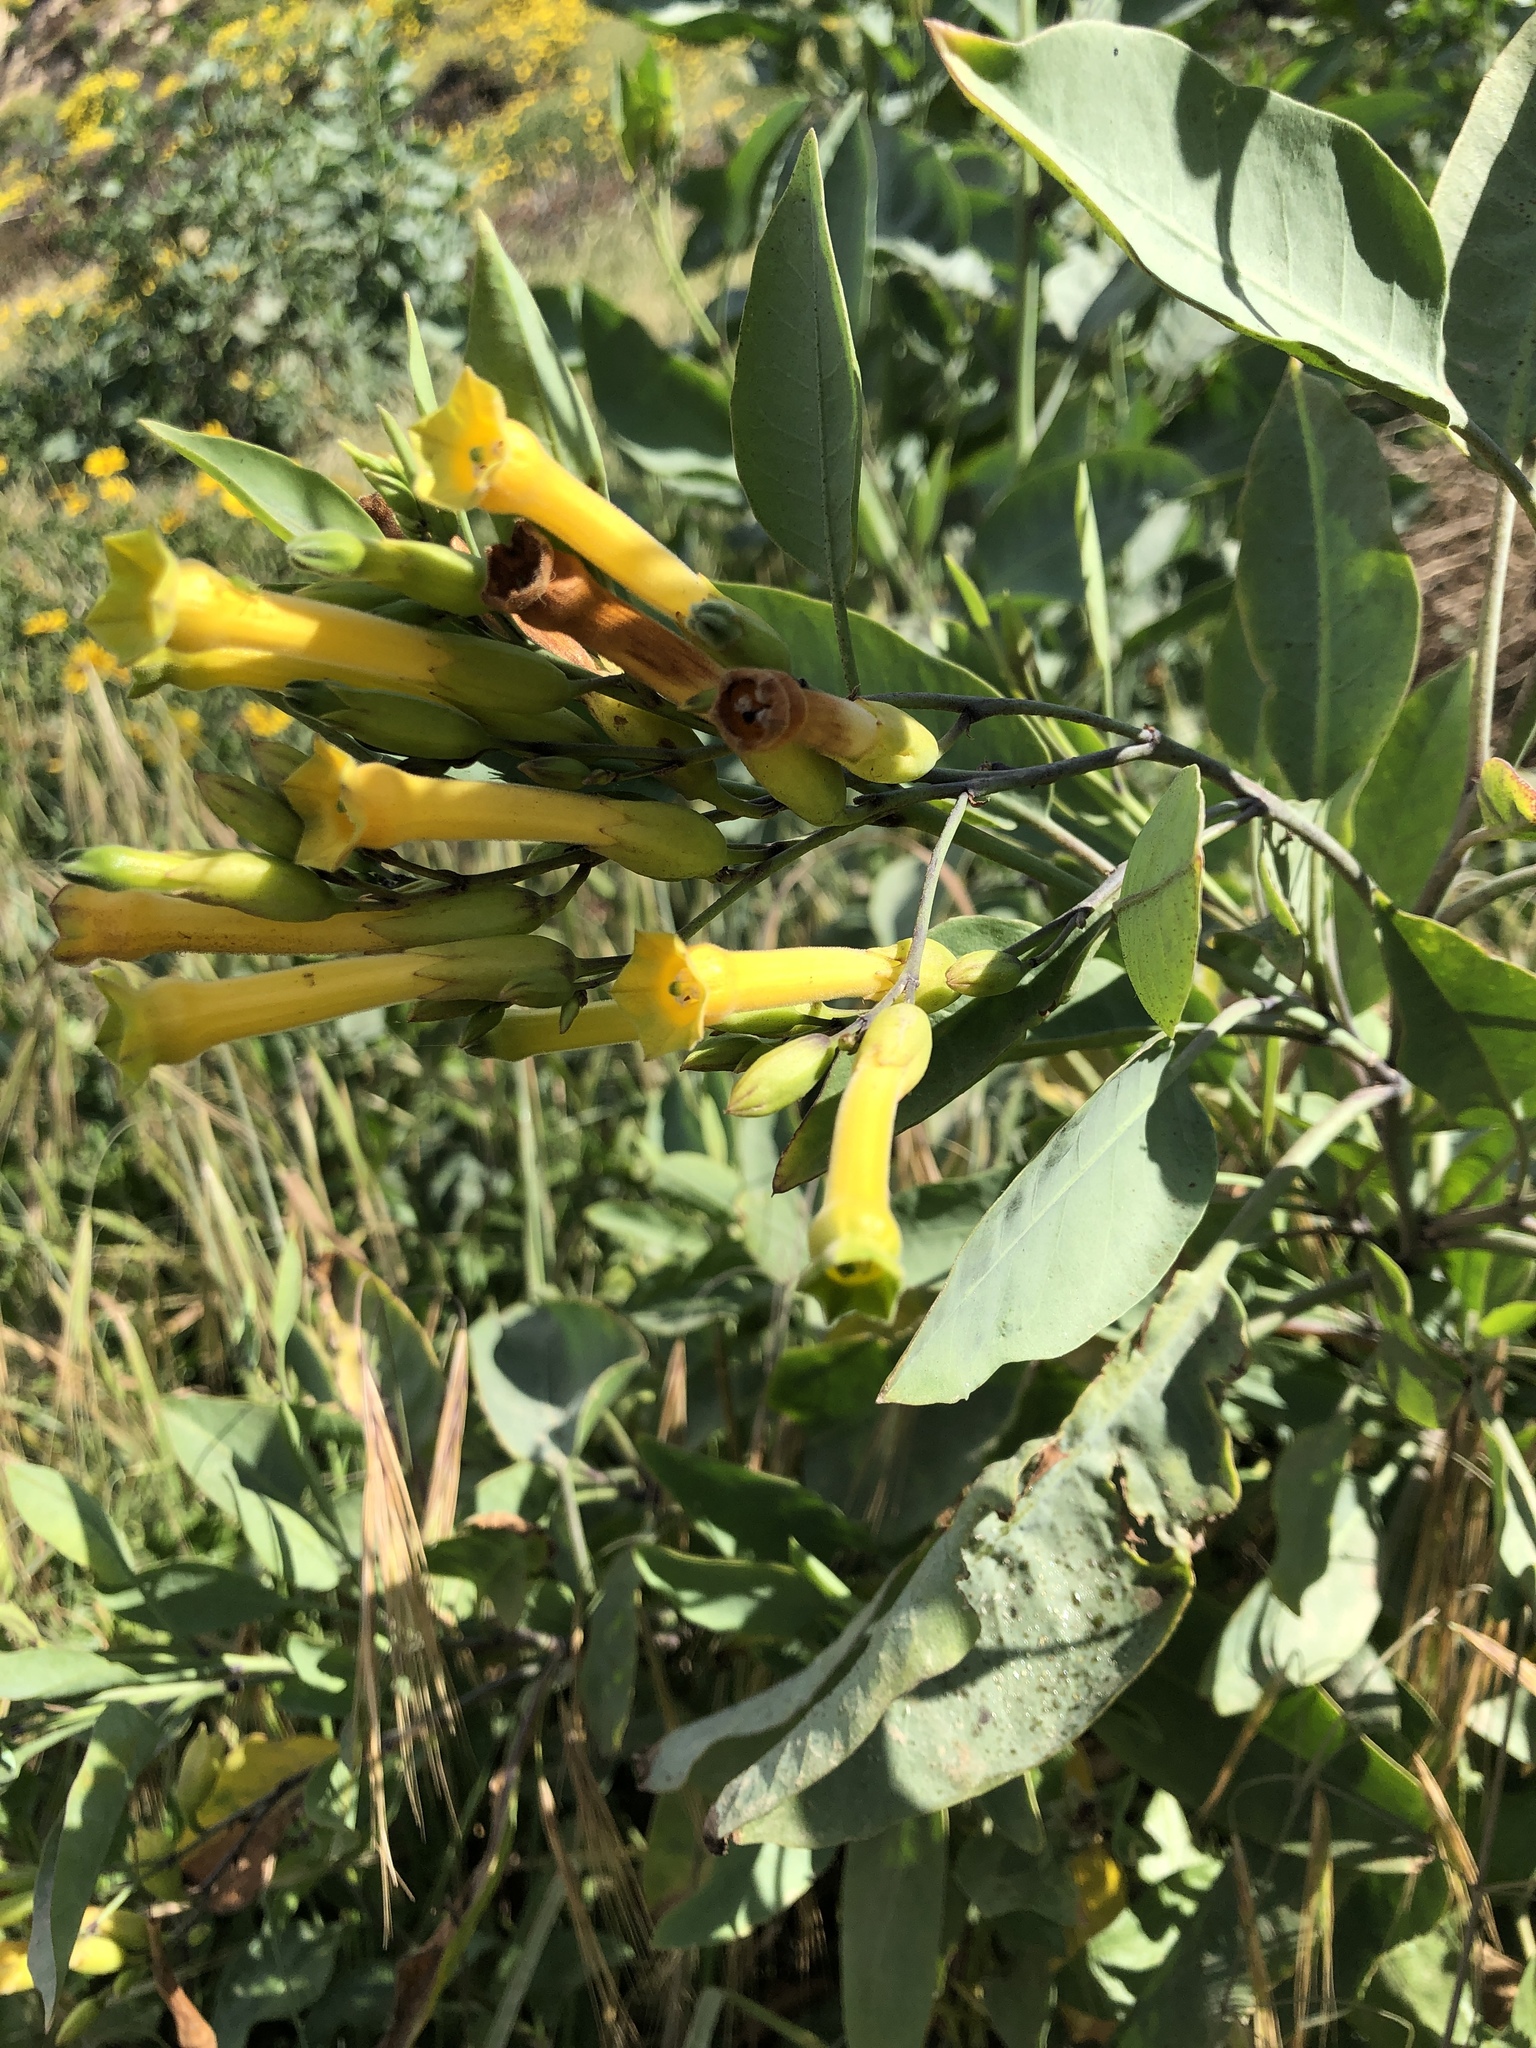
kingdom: Plantae
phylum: Tracheophyta
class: Magnoliopsida
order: Solanales
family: Solanaceae
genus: Nicotiana
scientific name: Nicotiana glauca
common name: Tree tobacco
